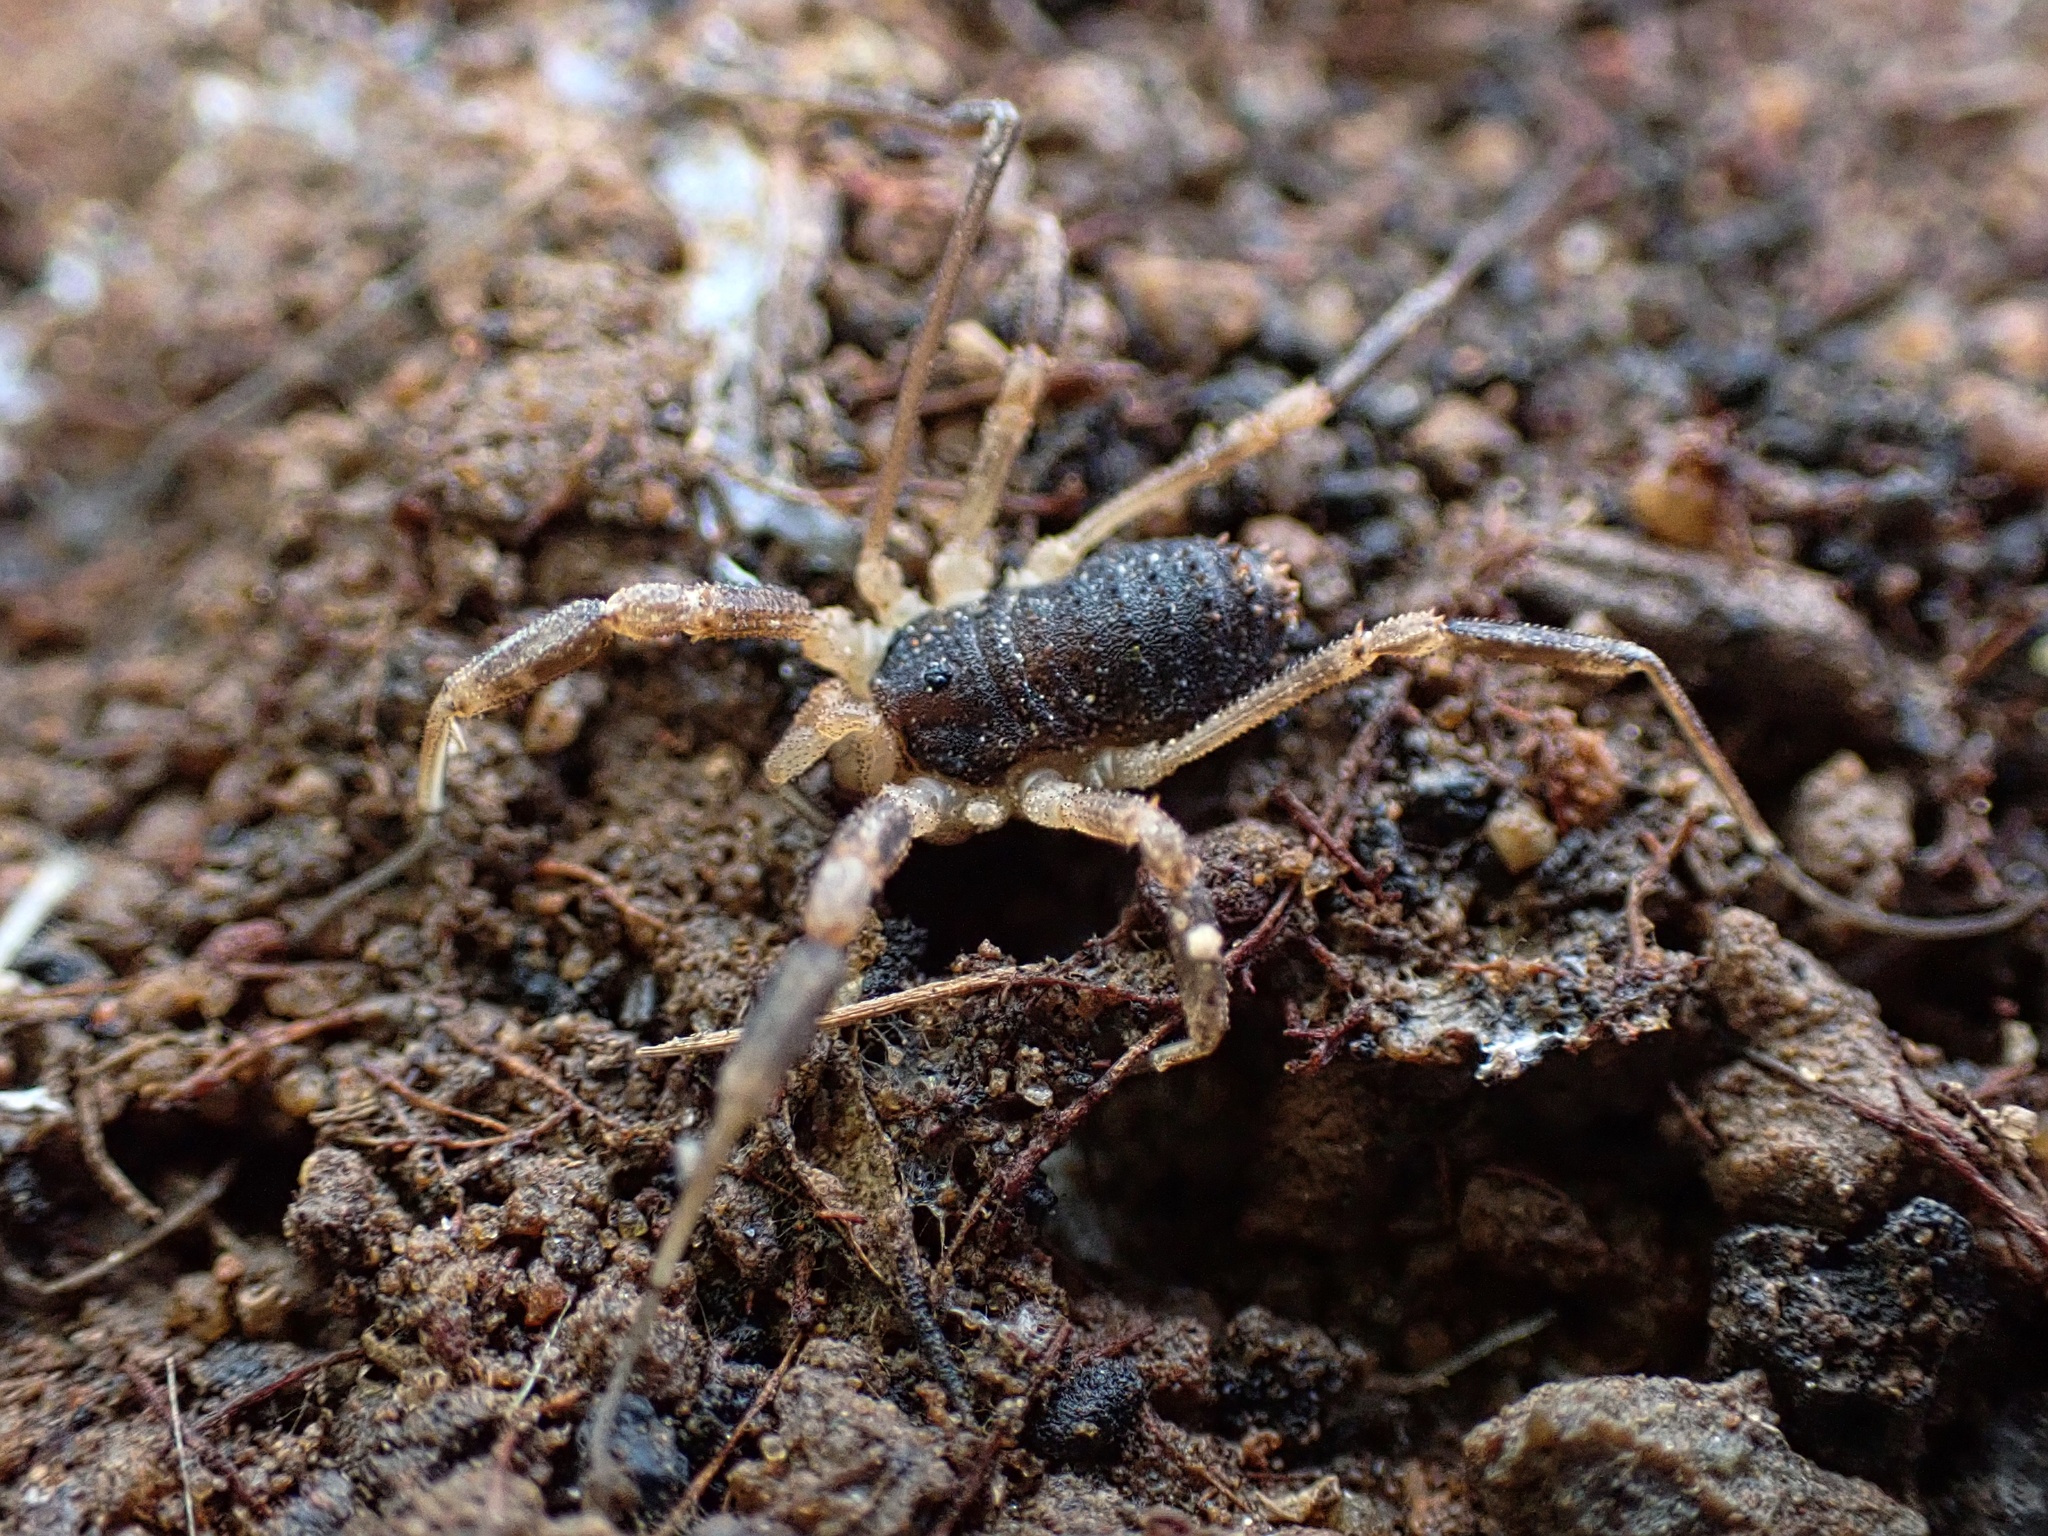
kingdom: Animalia
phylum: Arthropoda
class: Arachnida
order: Opiliones
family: Globipedidae
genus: Dalquestia
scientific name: Dalquestia rugosa
